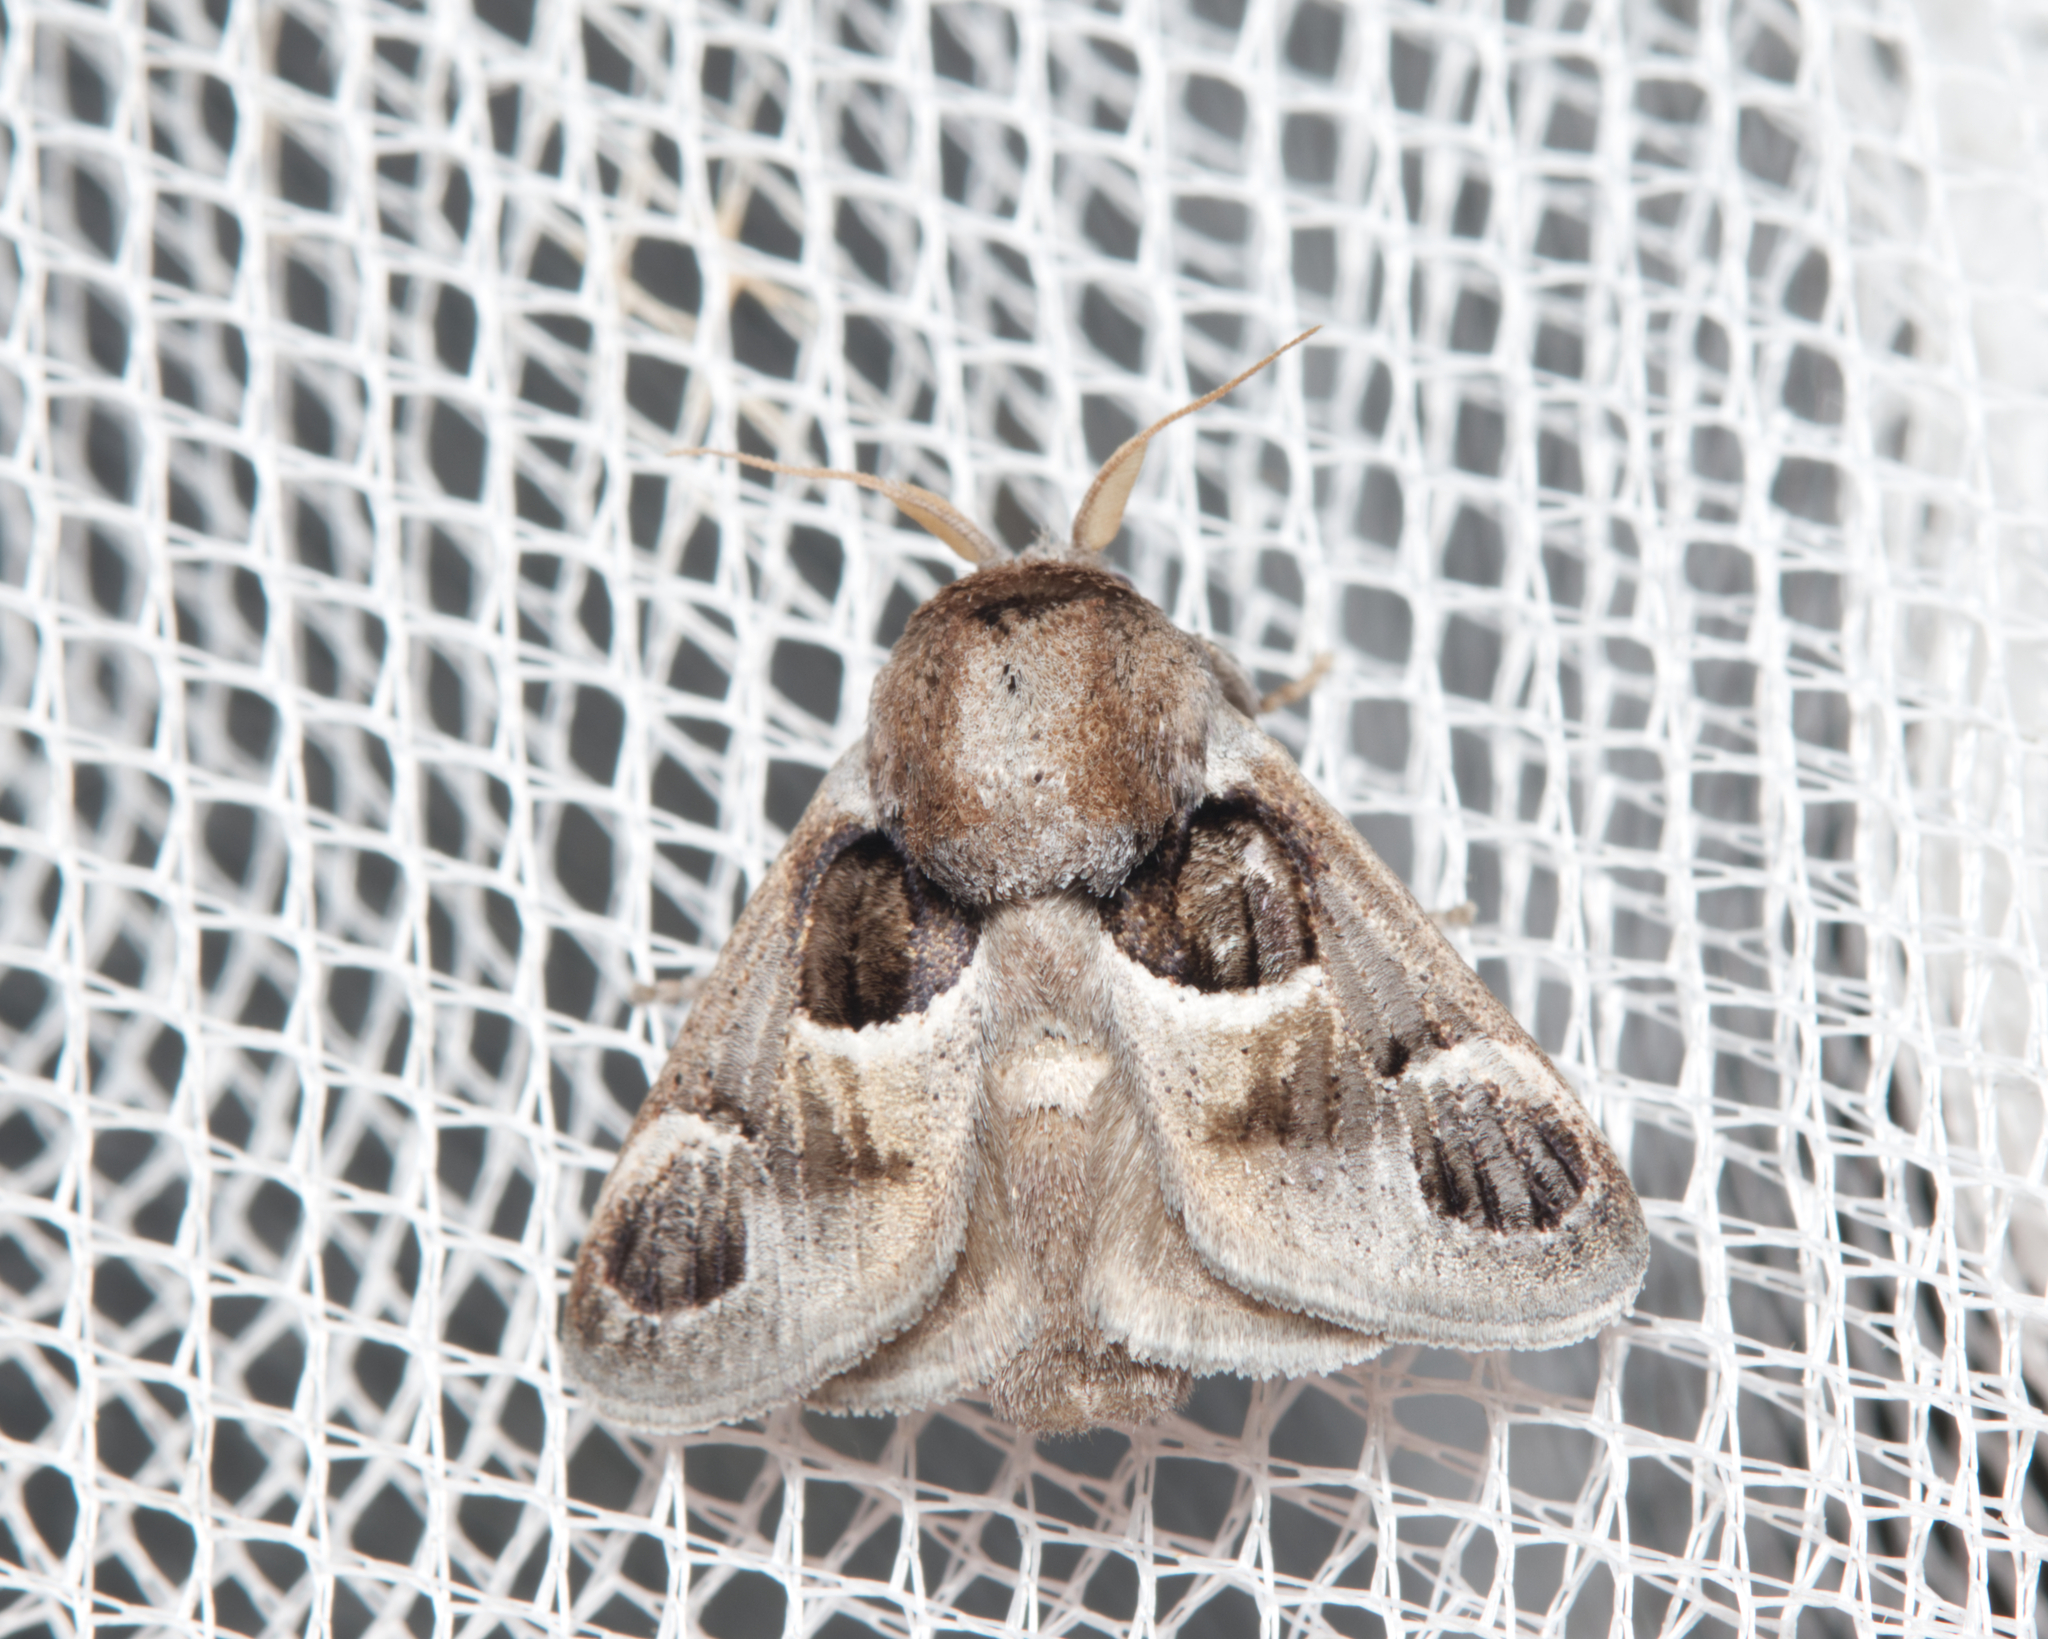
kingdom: Animalia
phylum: Arthropoda
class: Insecta
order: Lepidoptera
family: Limacodidae
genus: Pygmaeomorpha
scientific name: Pygmaeomorpha ocularis
